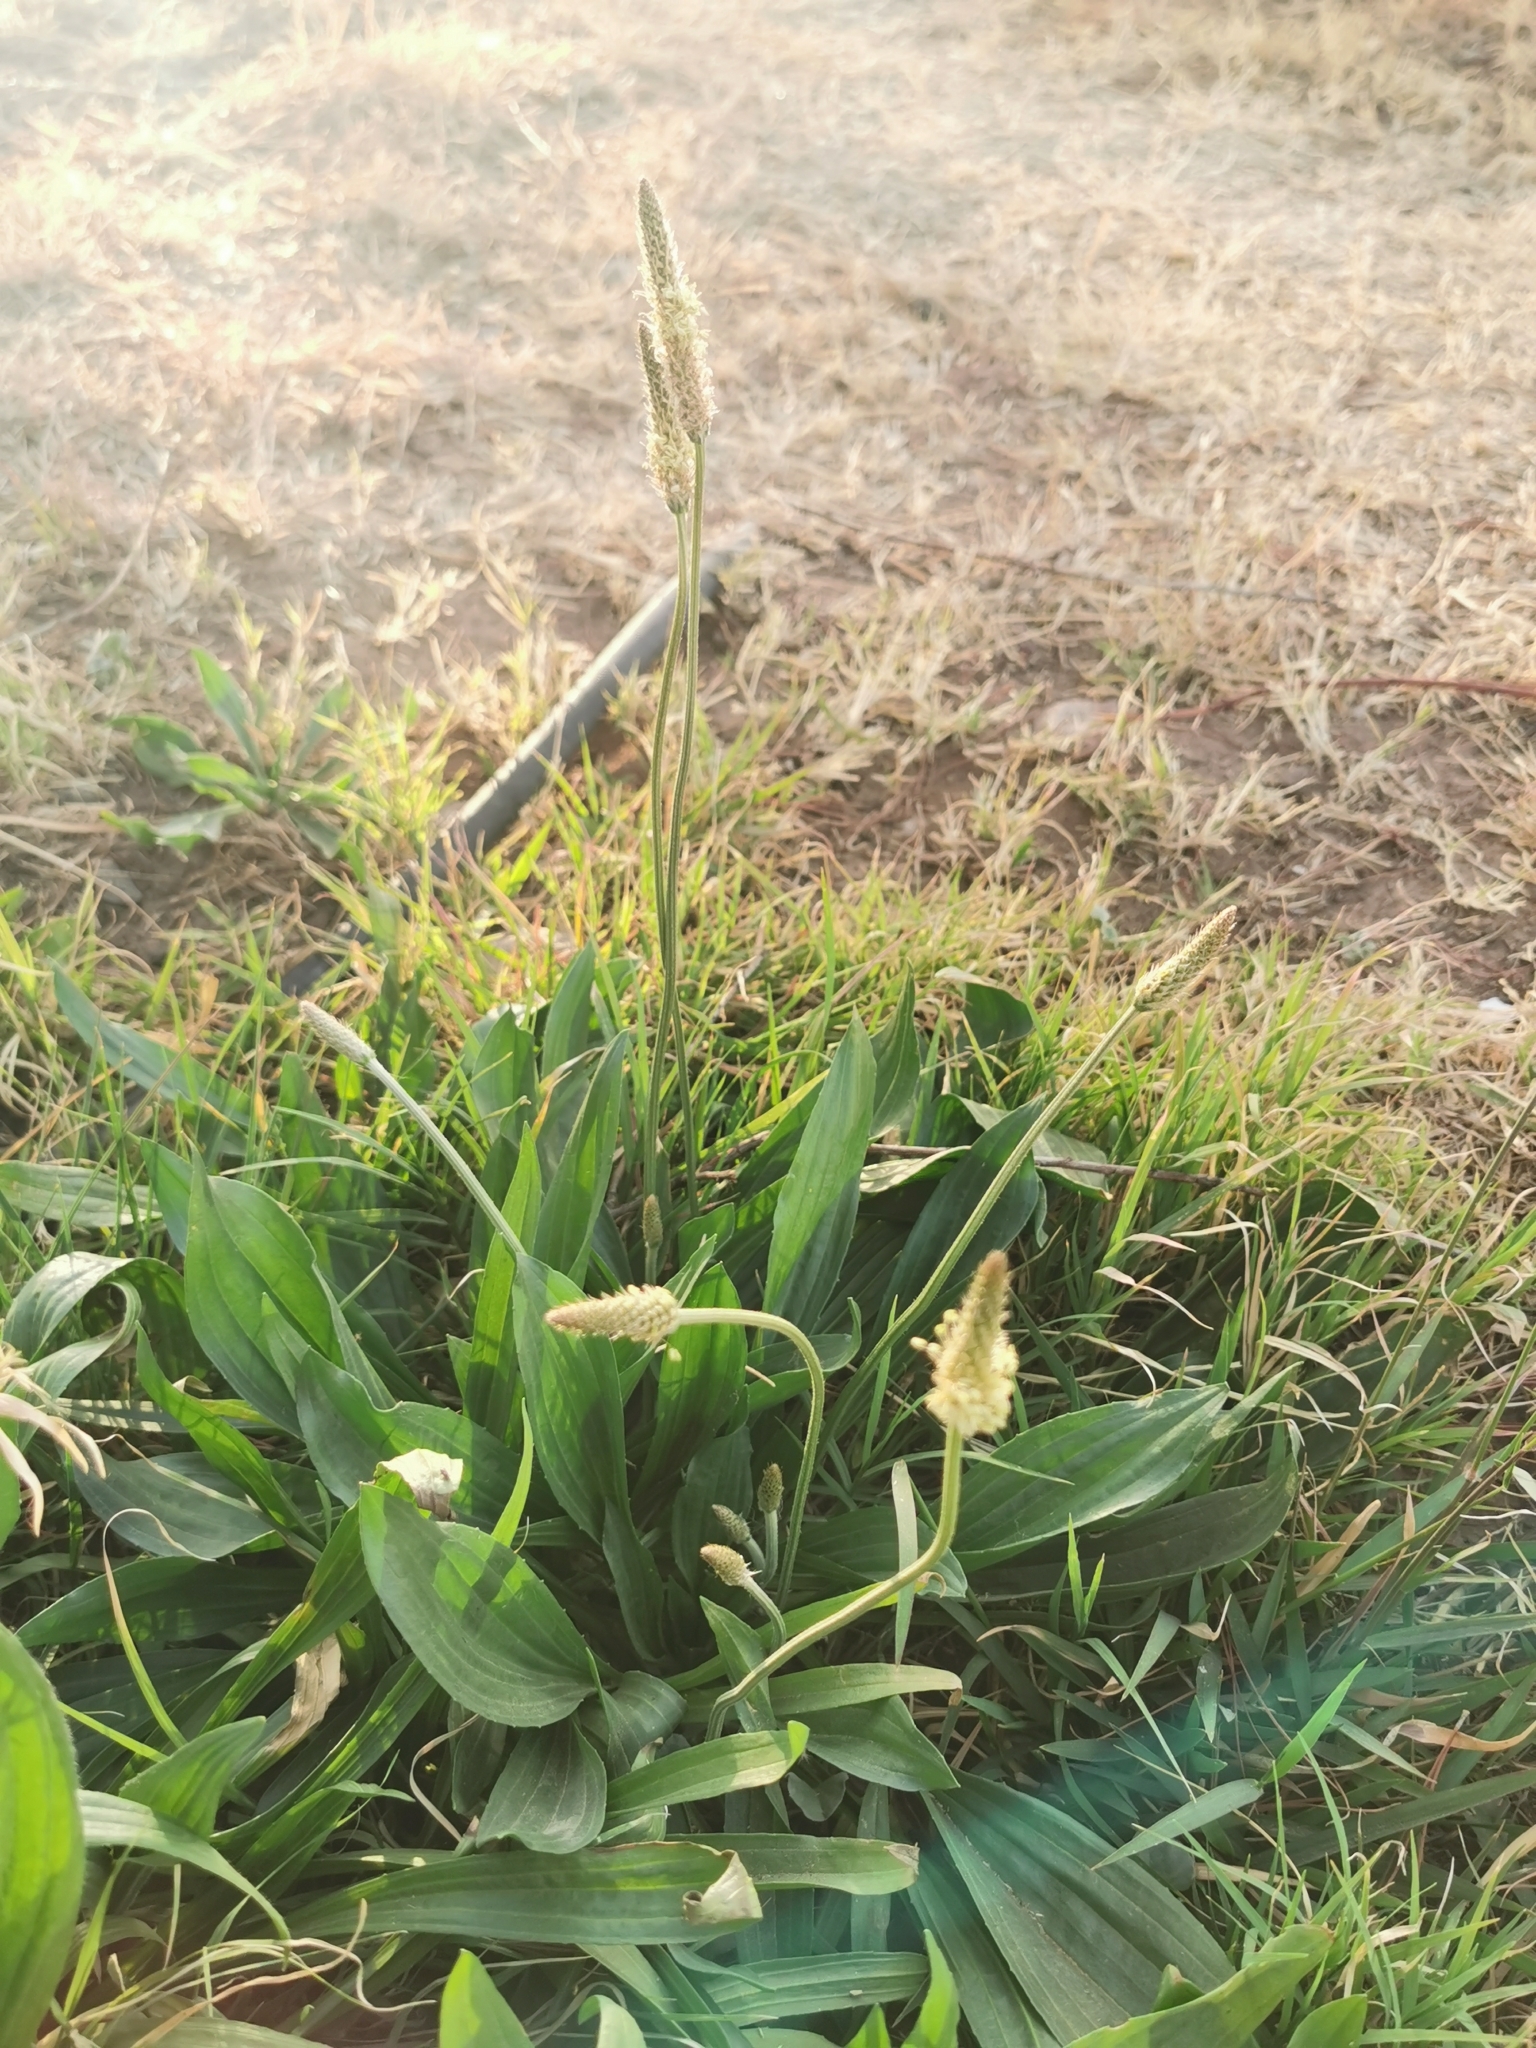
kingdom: Plantae
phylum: Tracheophyta
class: Magnoliopsida
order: Lamiales
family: Plantaginaceae
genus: Plantago
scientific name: Plantago lanceolata
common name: Ribwort plantain
